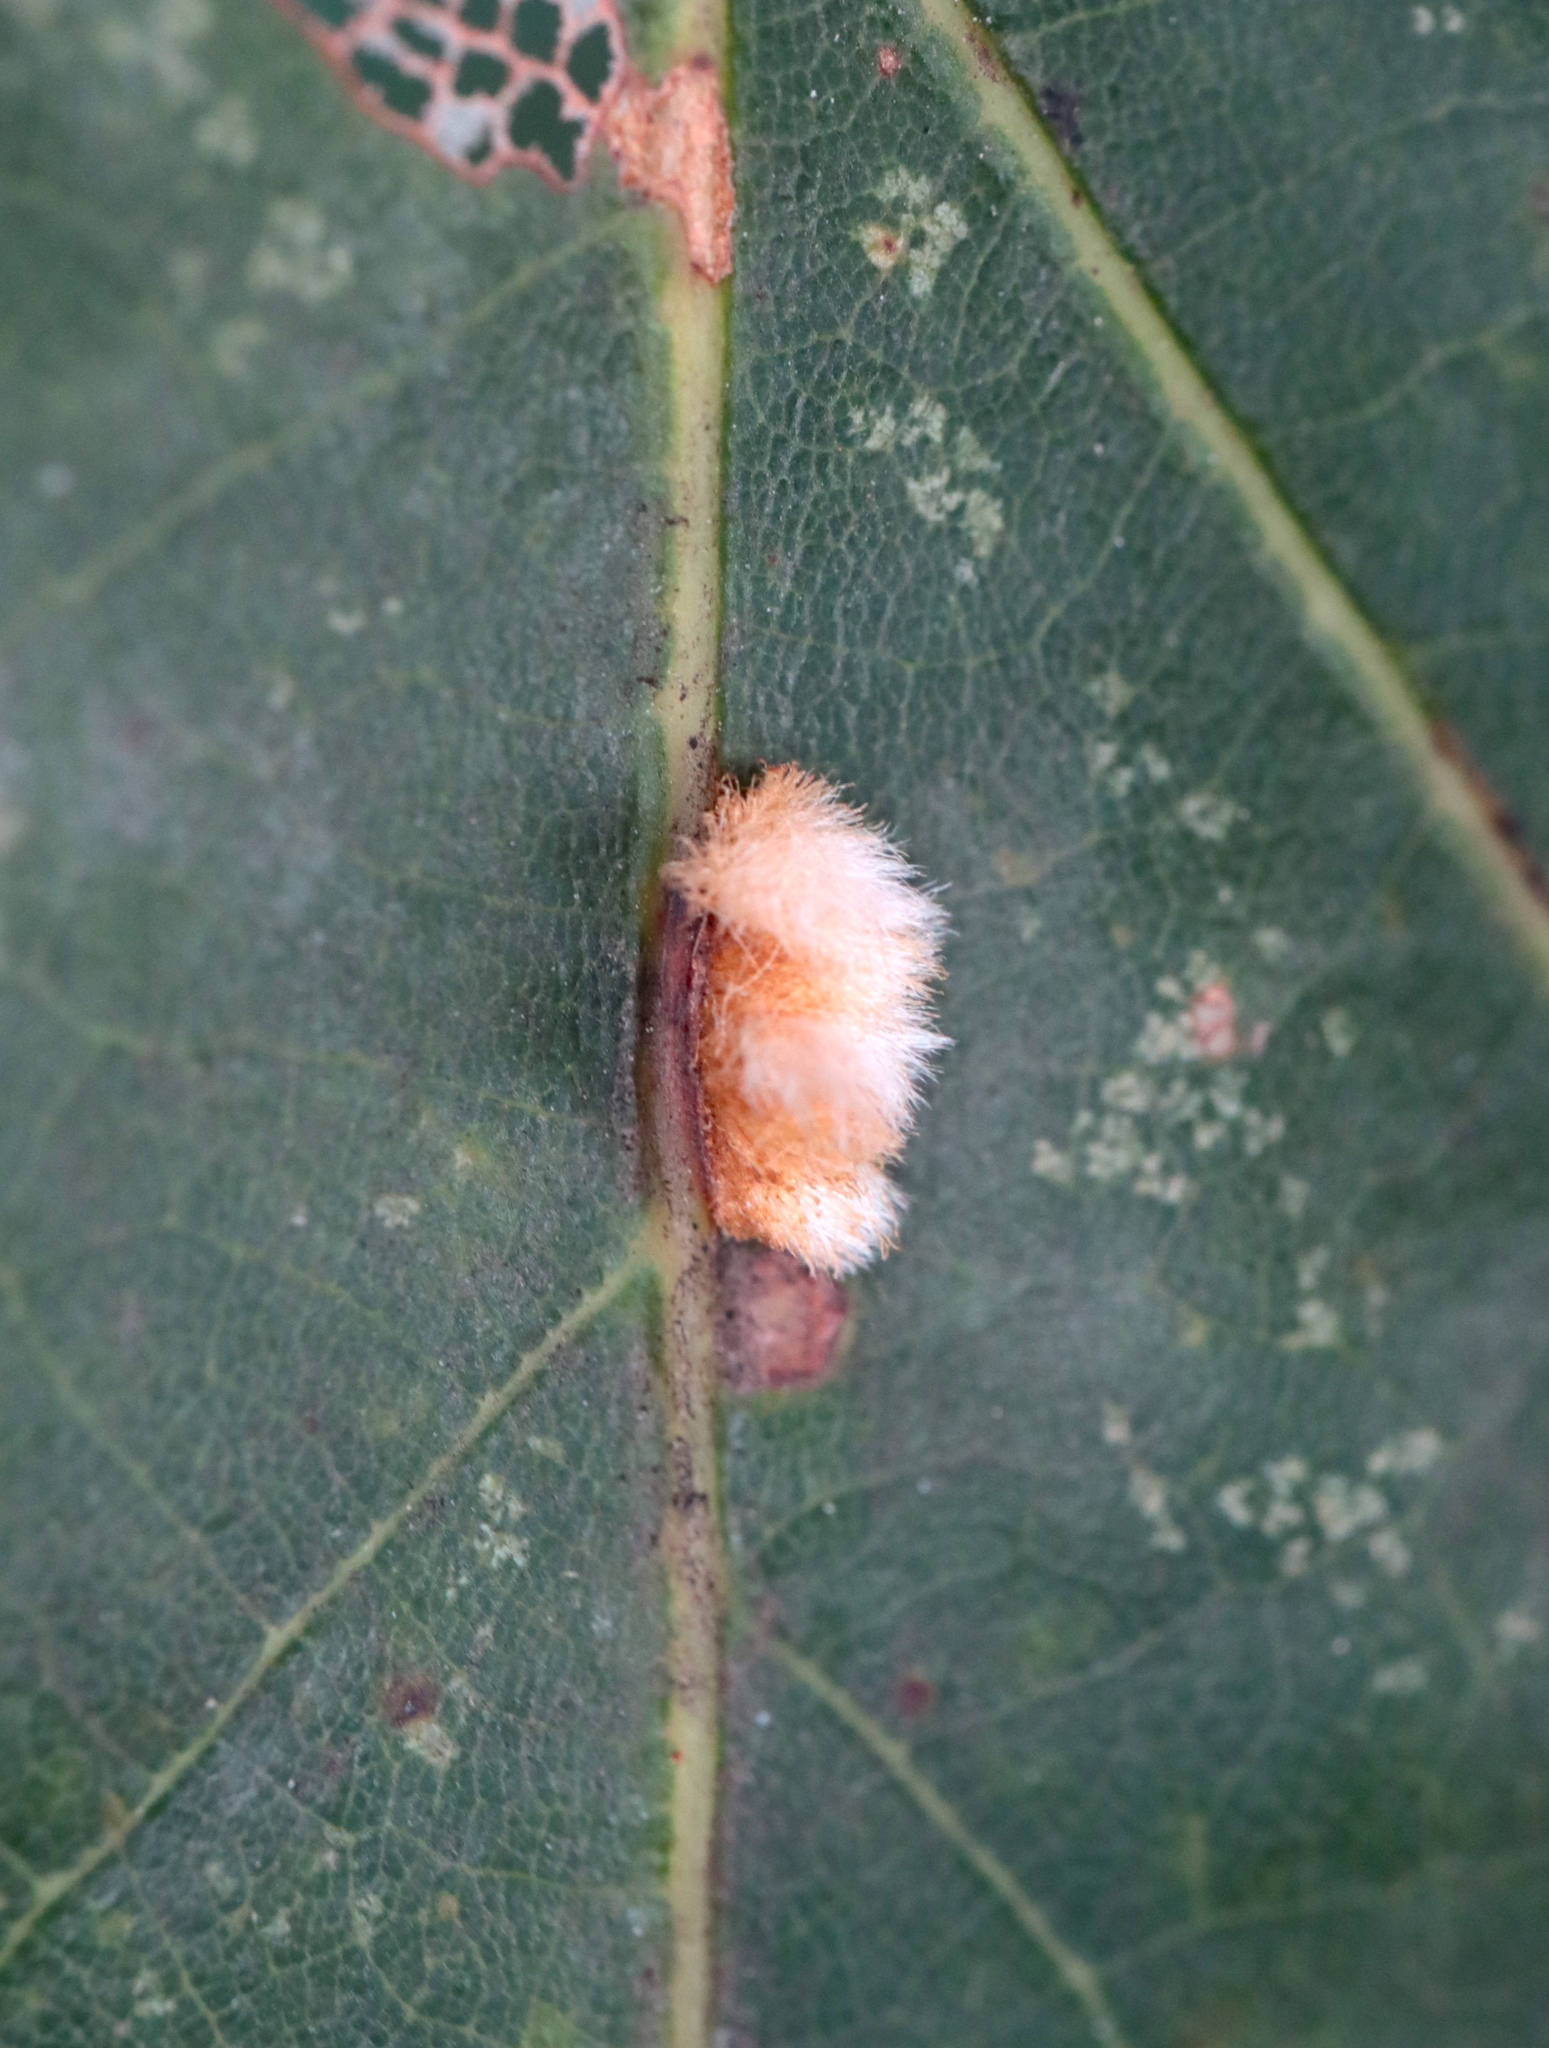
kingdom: Animalia
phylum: Arthropoda
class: Insecta
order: Hymenoptera
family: Cynipidae
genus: Andricus
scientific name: Andricus
